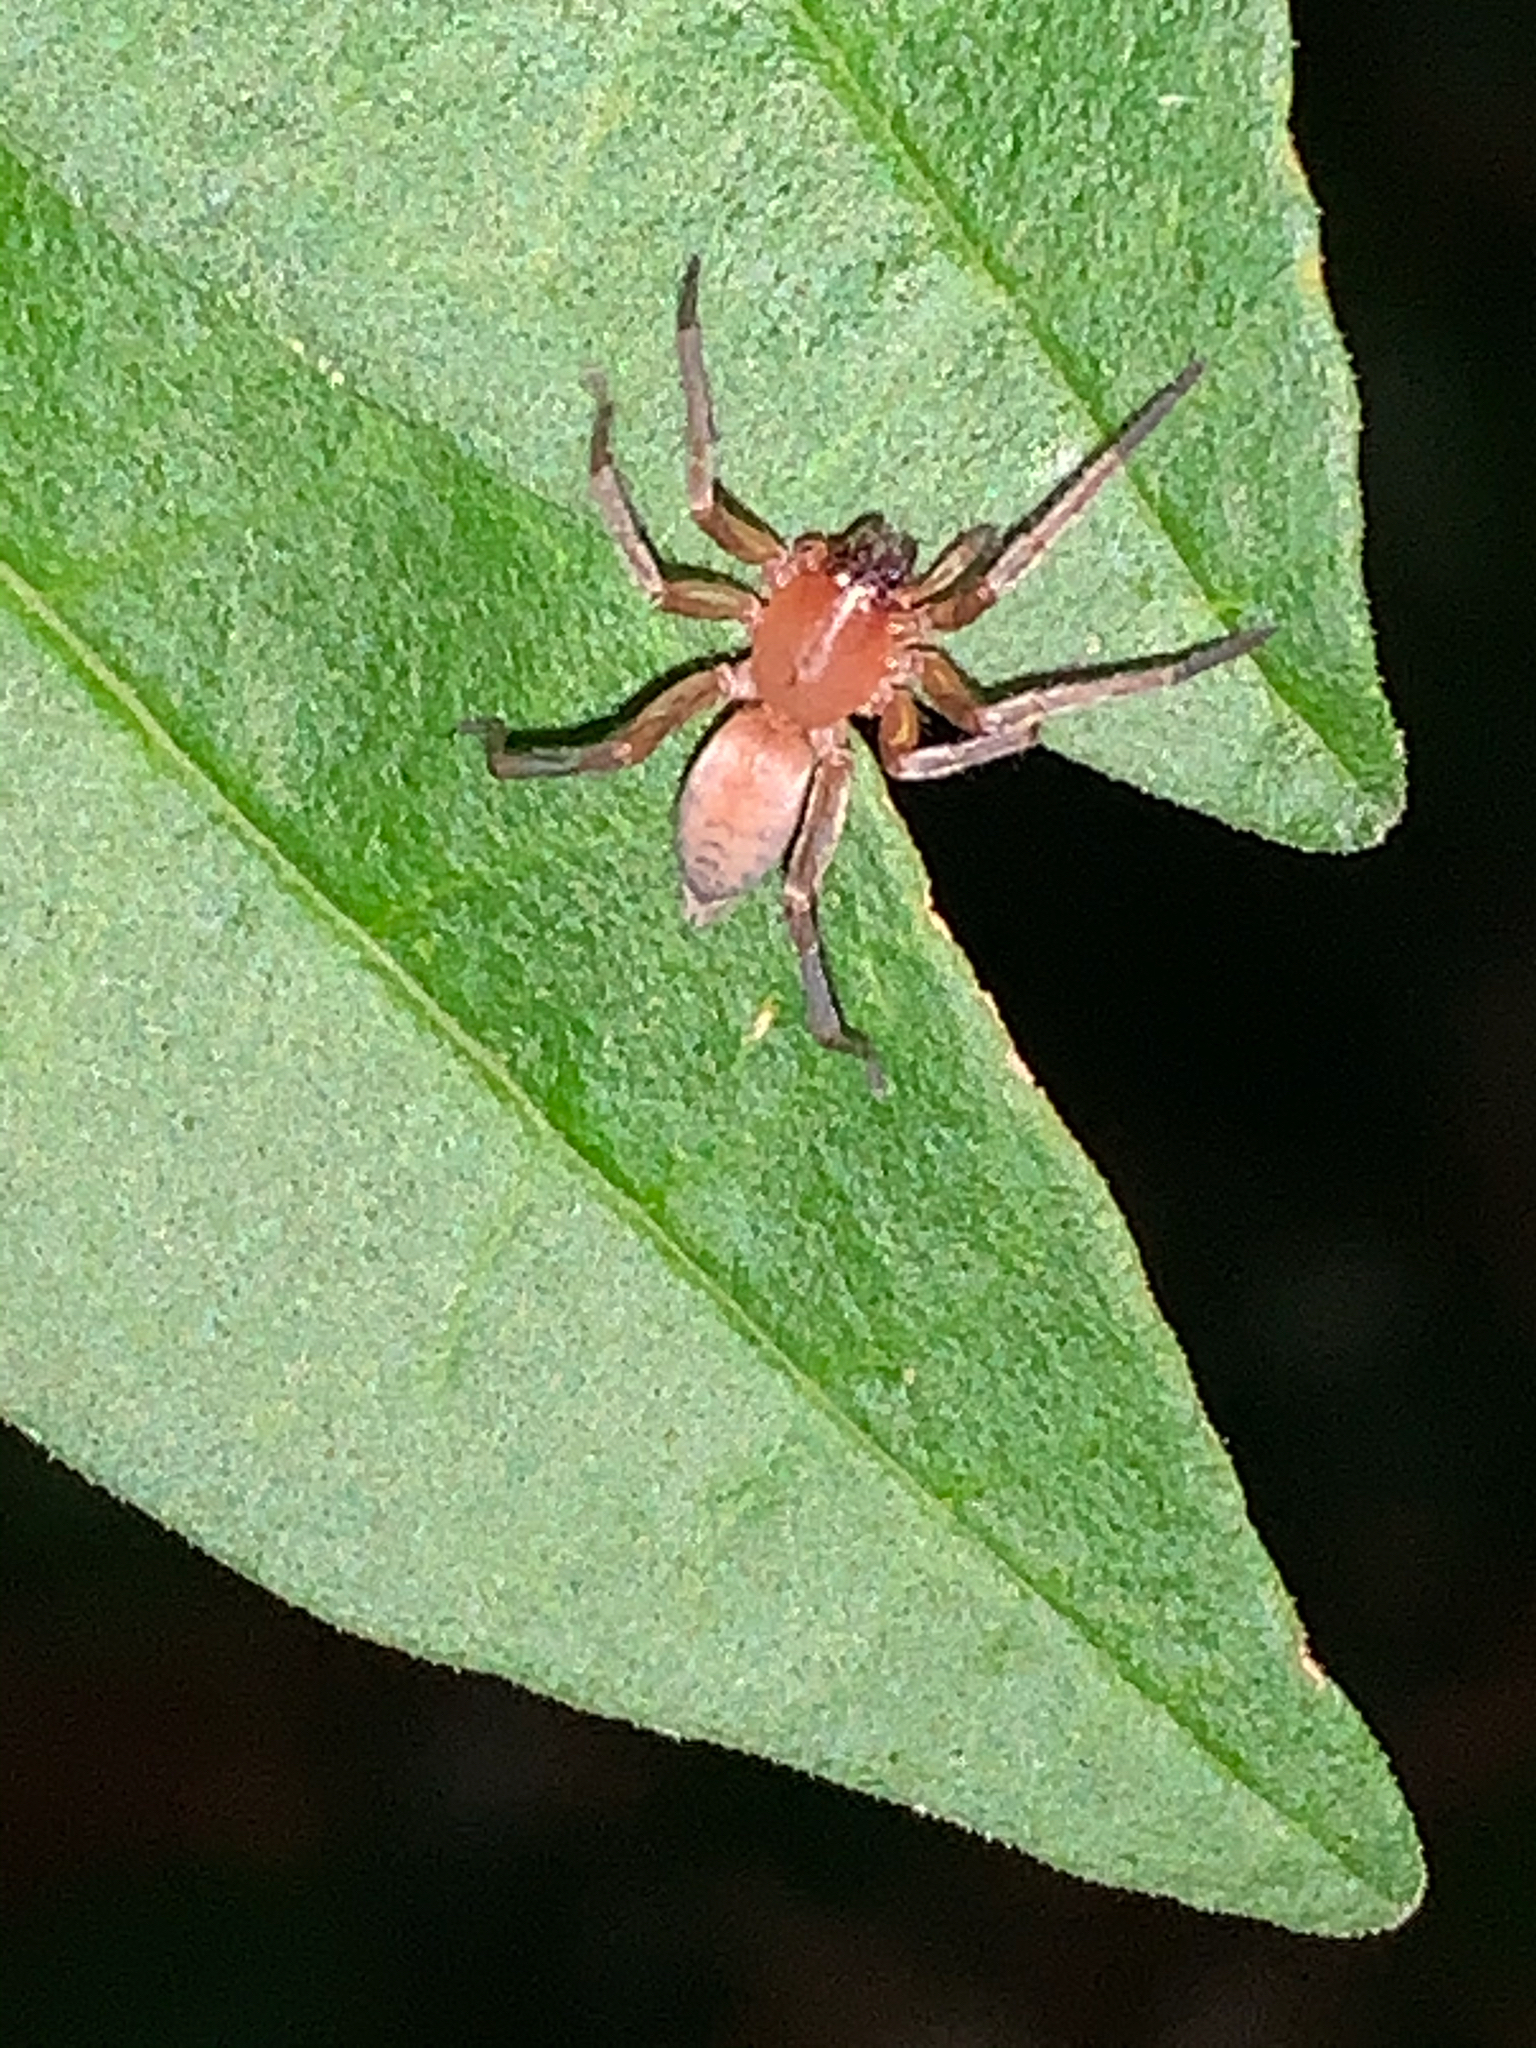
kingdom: Animalia
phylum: Arthropoda
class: Arachnida
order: Araneae
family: Clubionidae
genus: Elaver
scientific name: Elaver excepta
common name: White sac spider
